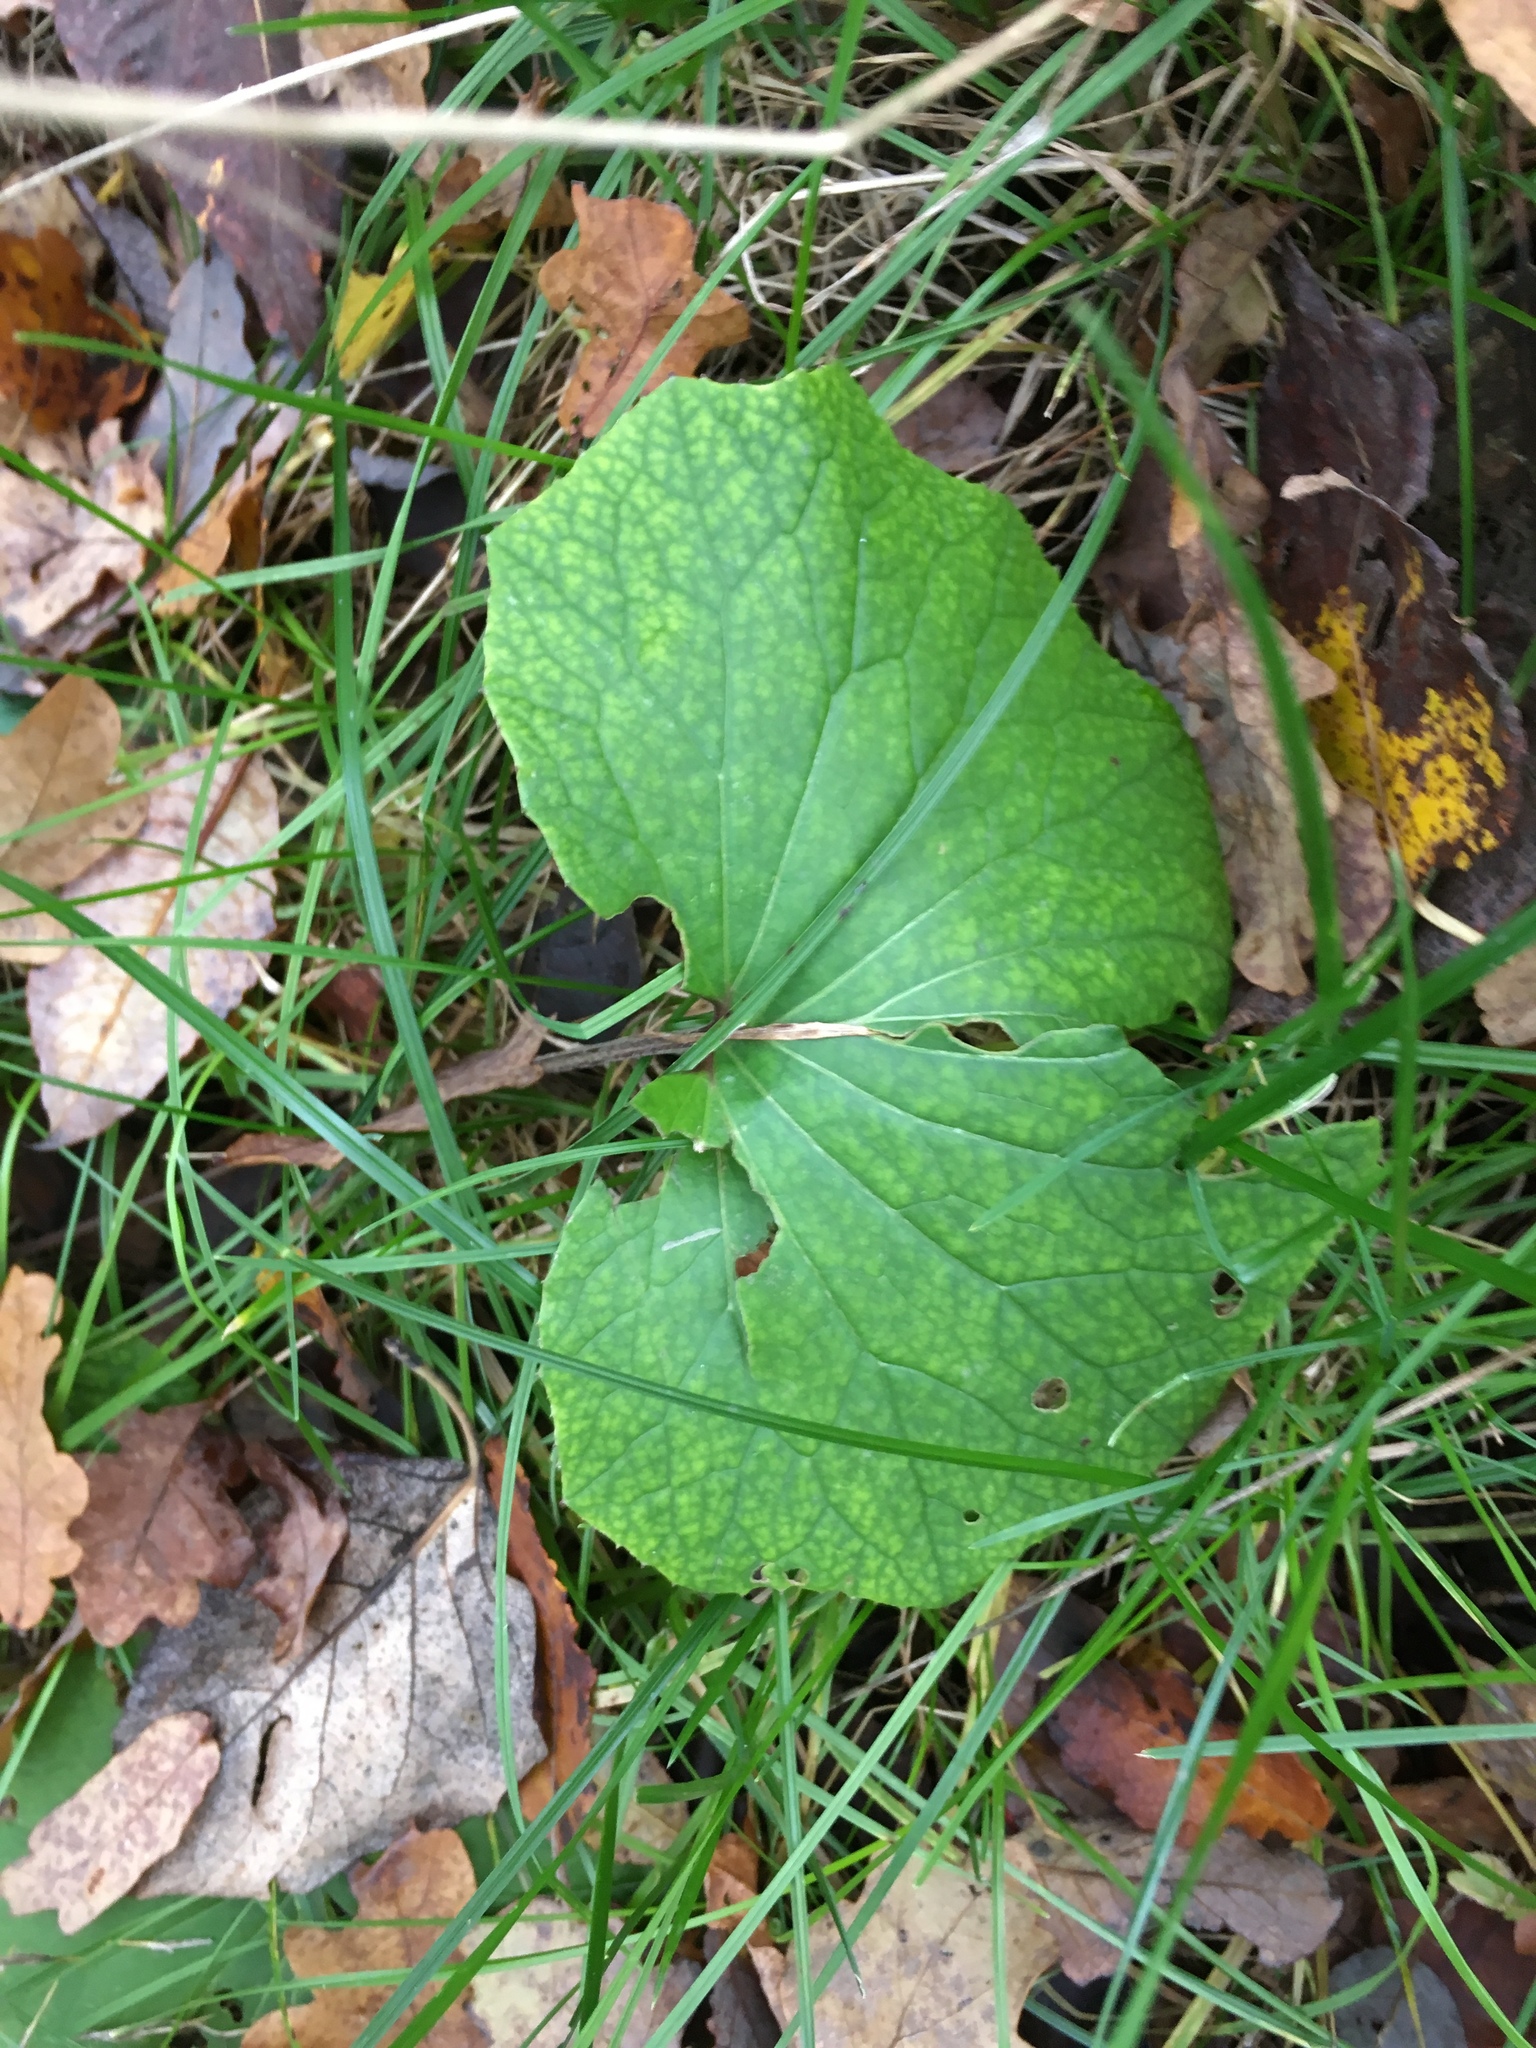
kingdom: Plantae
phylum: Tracheophyta
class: Magnoliopsida
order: Asterales
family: Asteraceae
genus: Tussilago
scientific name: Tussilago farfara
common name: Coltsfoot
